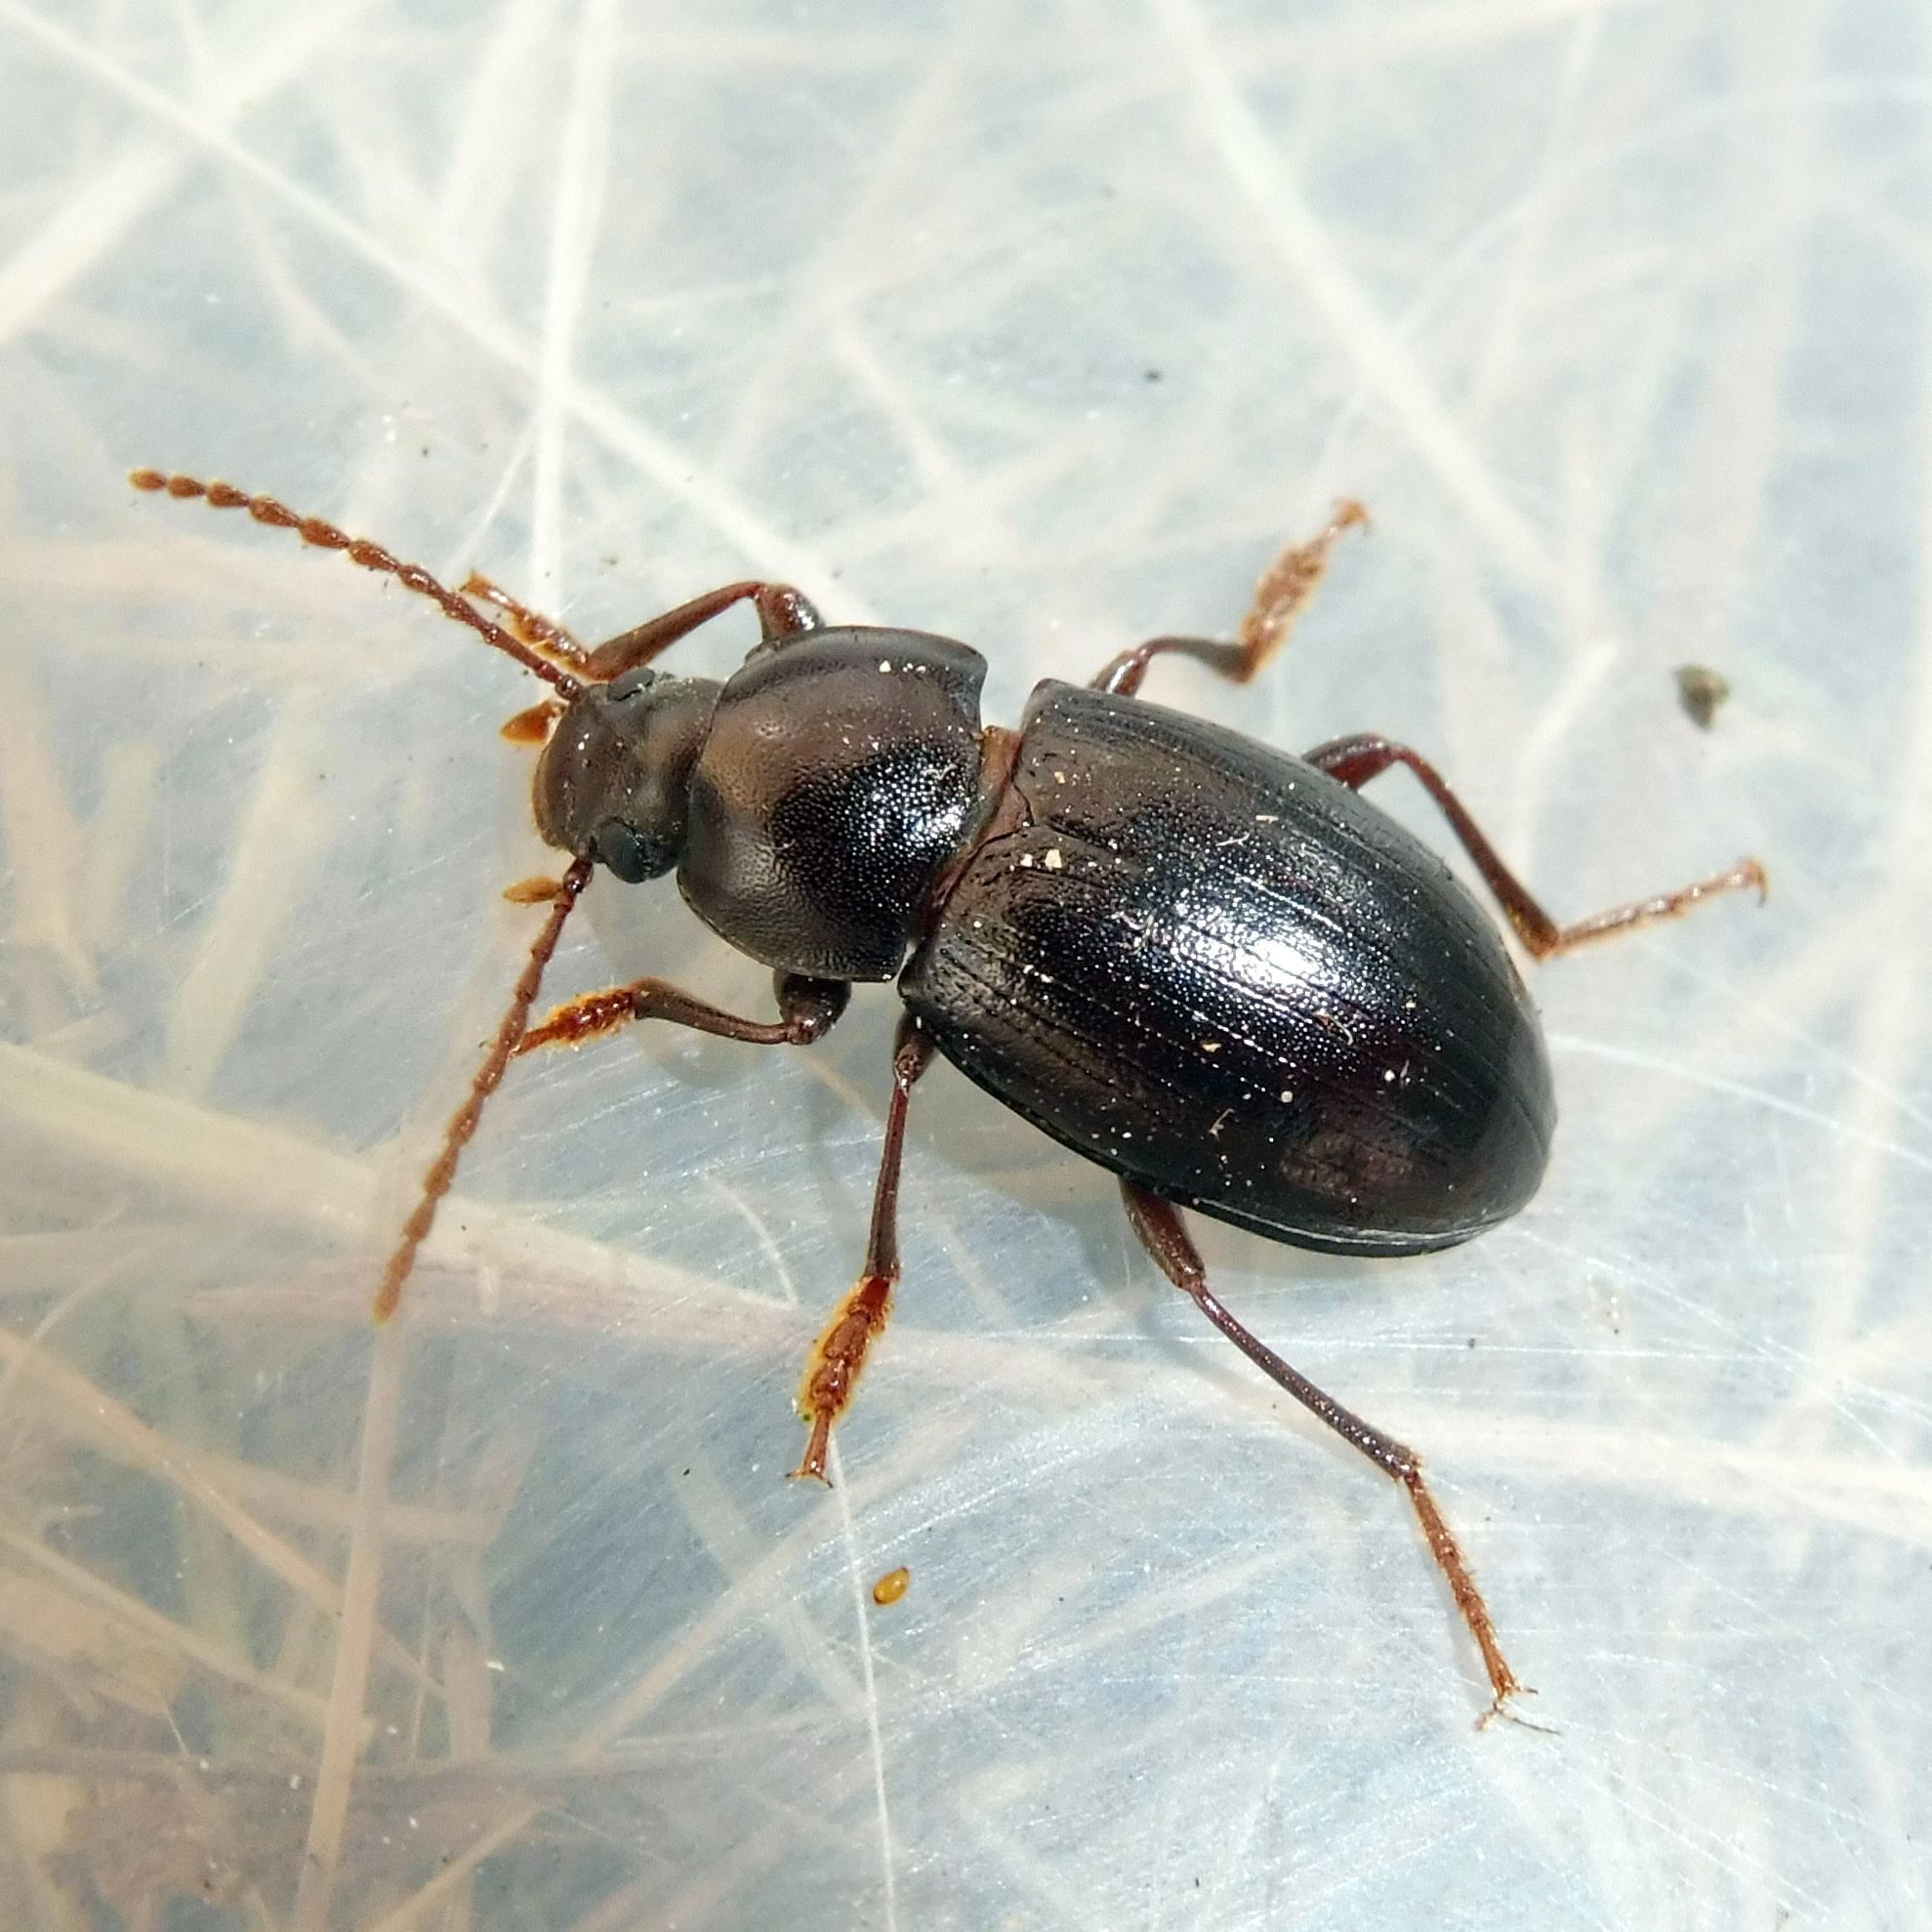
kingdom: Animalia
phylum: Arthropoda
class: Insecta
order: Coleoptera
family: Tenebrionidae
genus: Nalassus
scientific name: Nalassus laevioctostriatus
